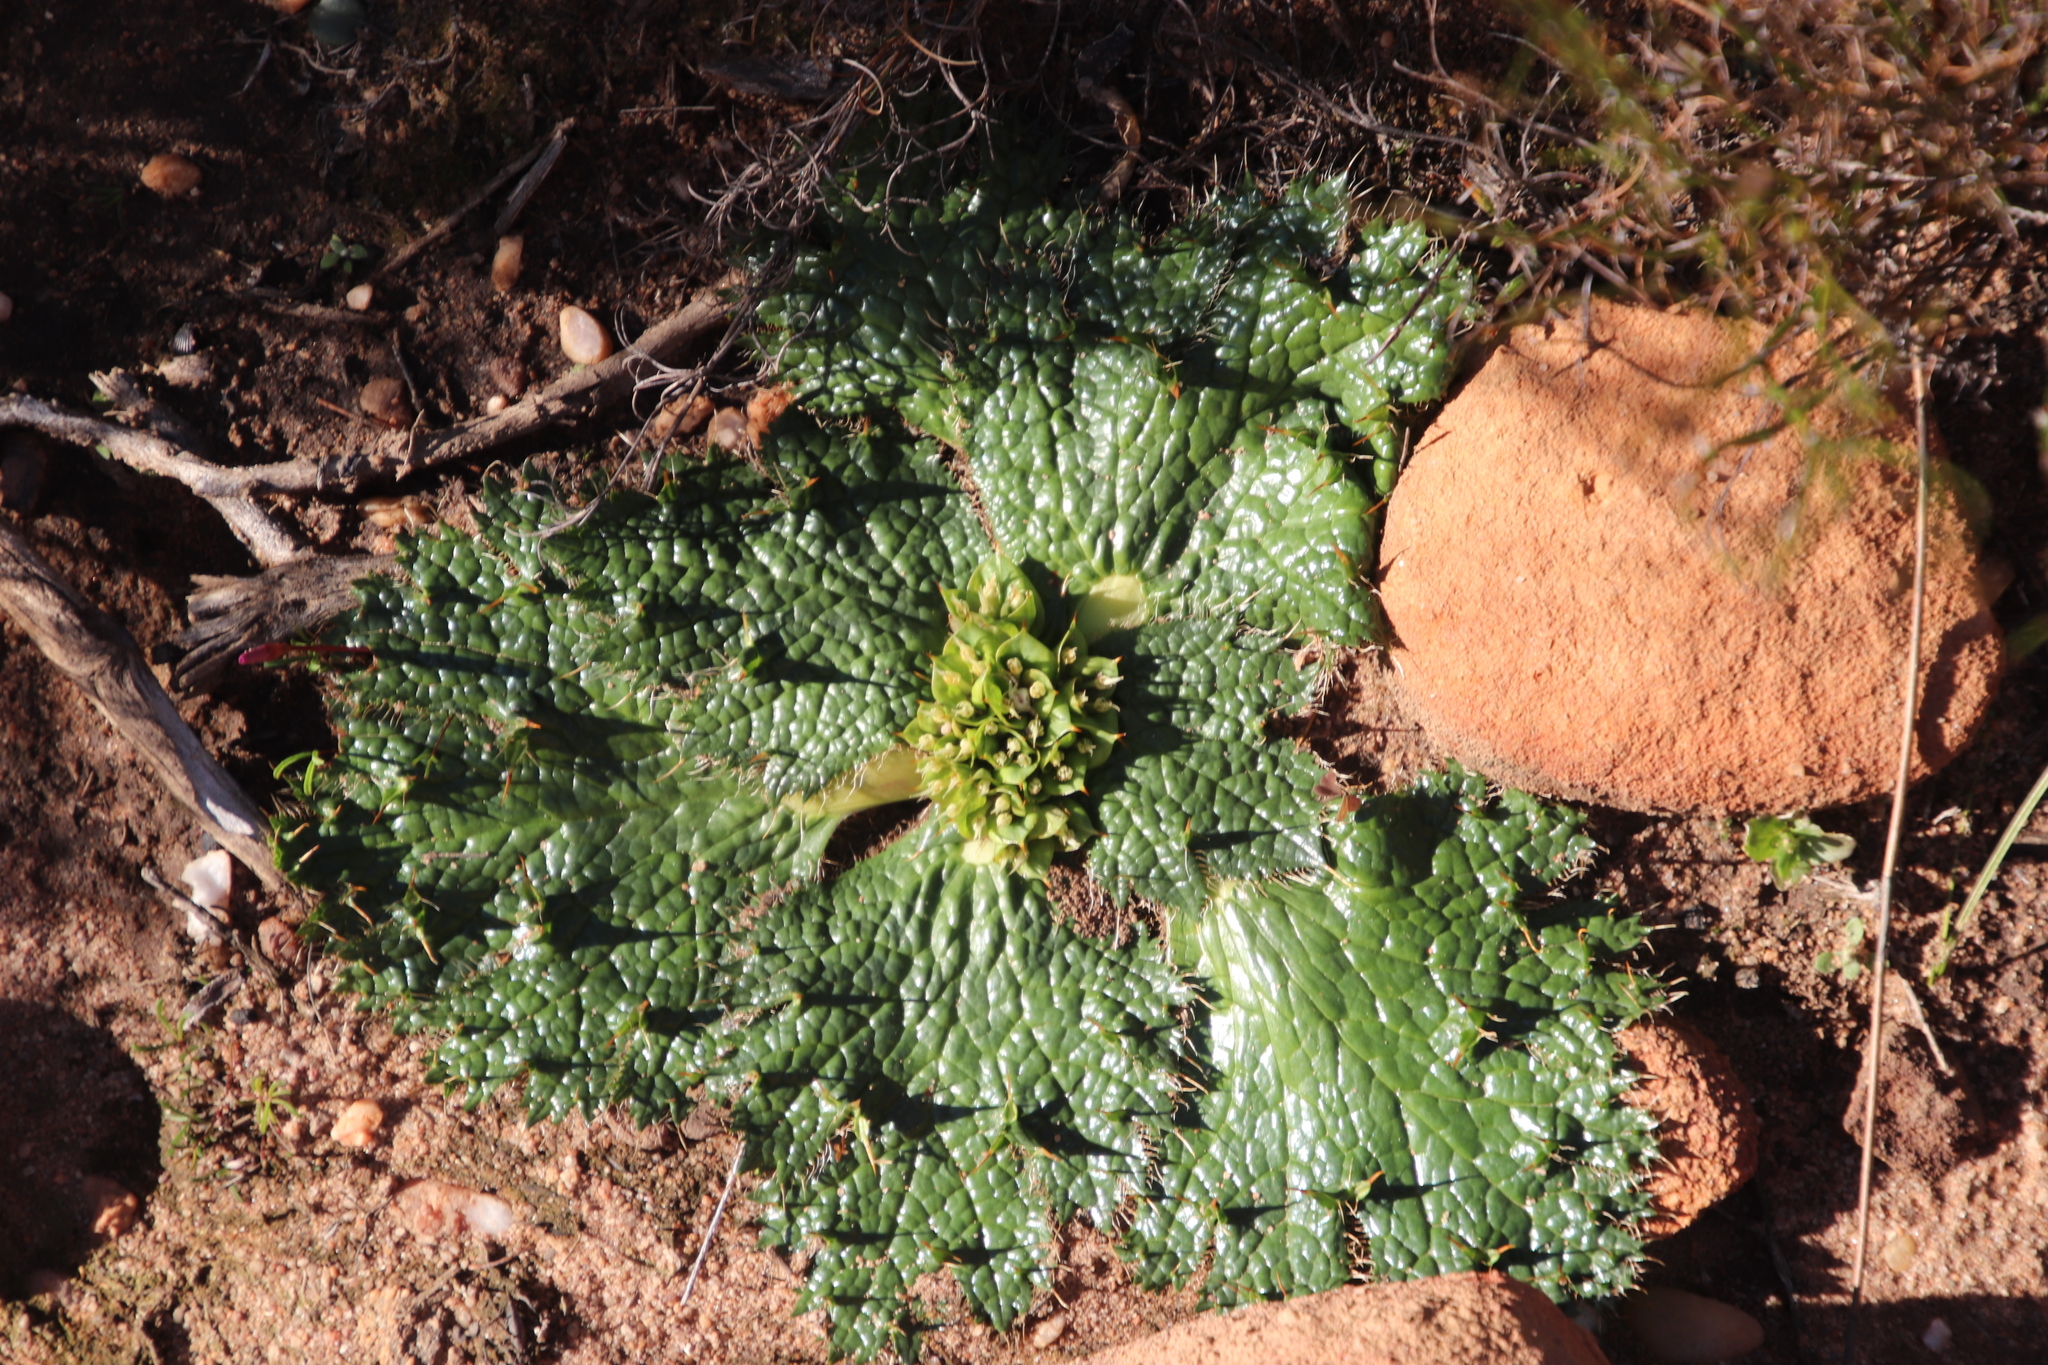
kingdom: Plantae
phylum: Tracheophyta
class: Magnoliopsida
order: Apiales
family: Apiaceae
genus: Arctopus
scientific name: Arctopus monacanthus
